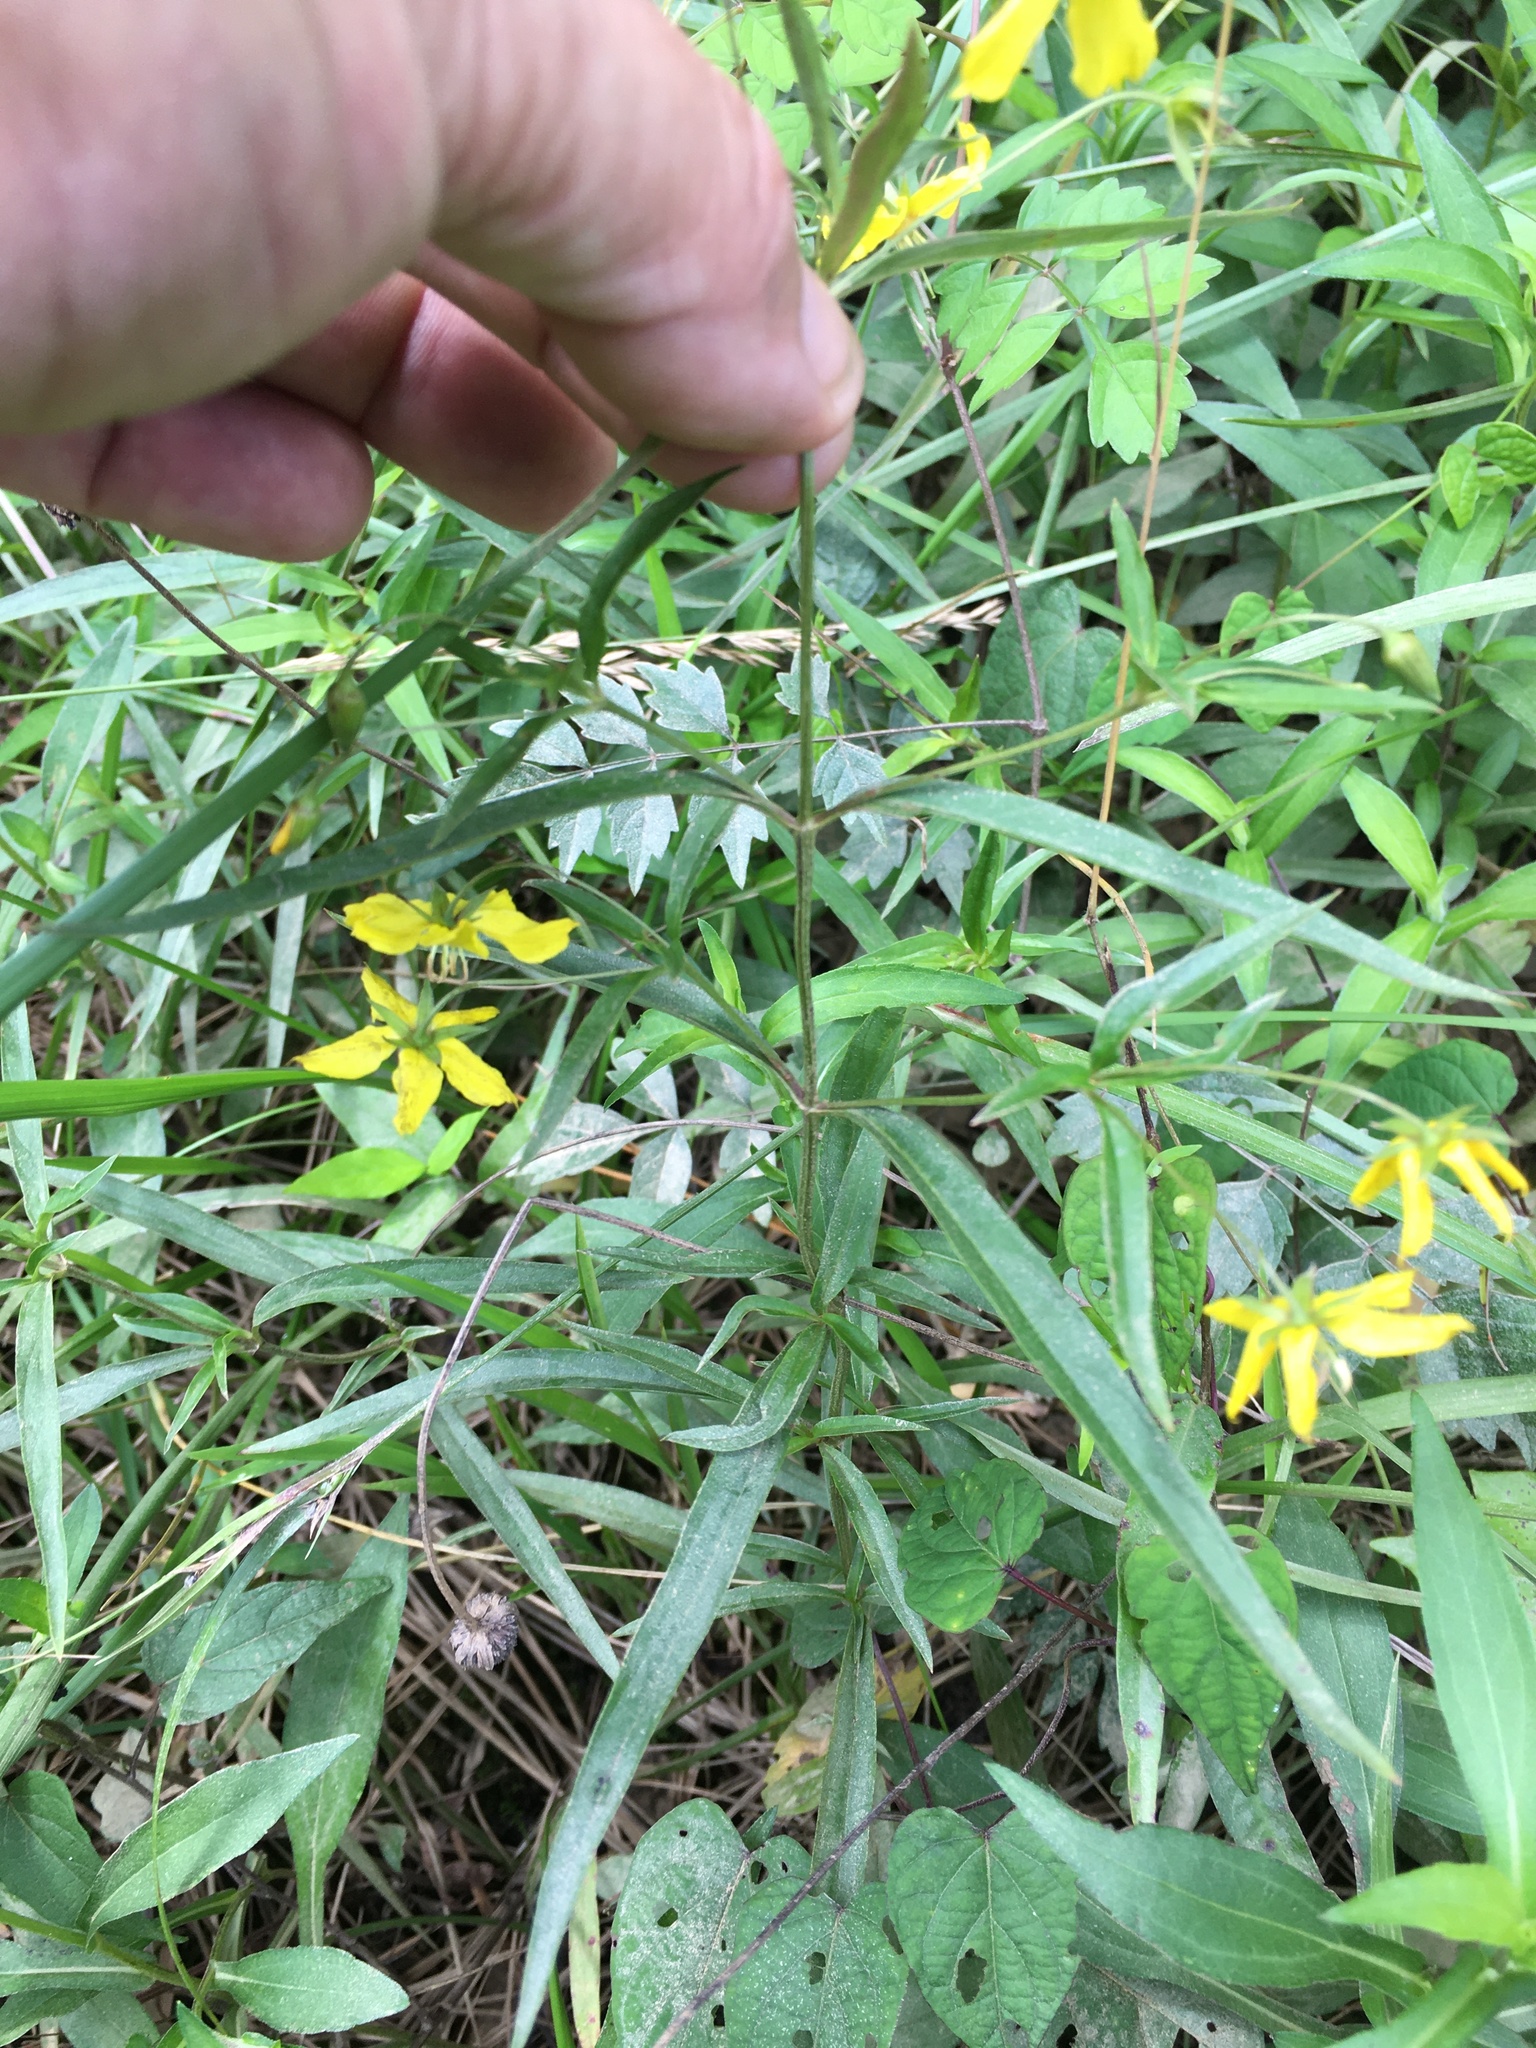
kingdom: Plantae
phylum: Tracheophyta
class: Magnoliopsida
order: Ericales
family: Primulaceae
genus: Lysimachia
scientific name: Lysimachia lanceolata
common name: Lance-leaved loosestrife
